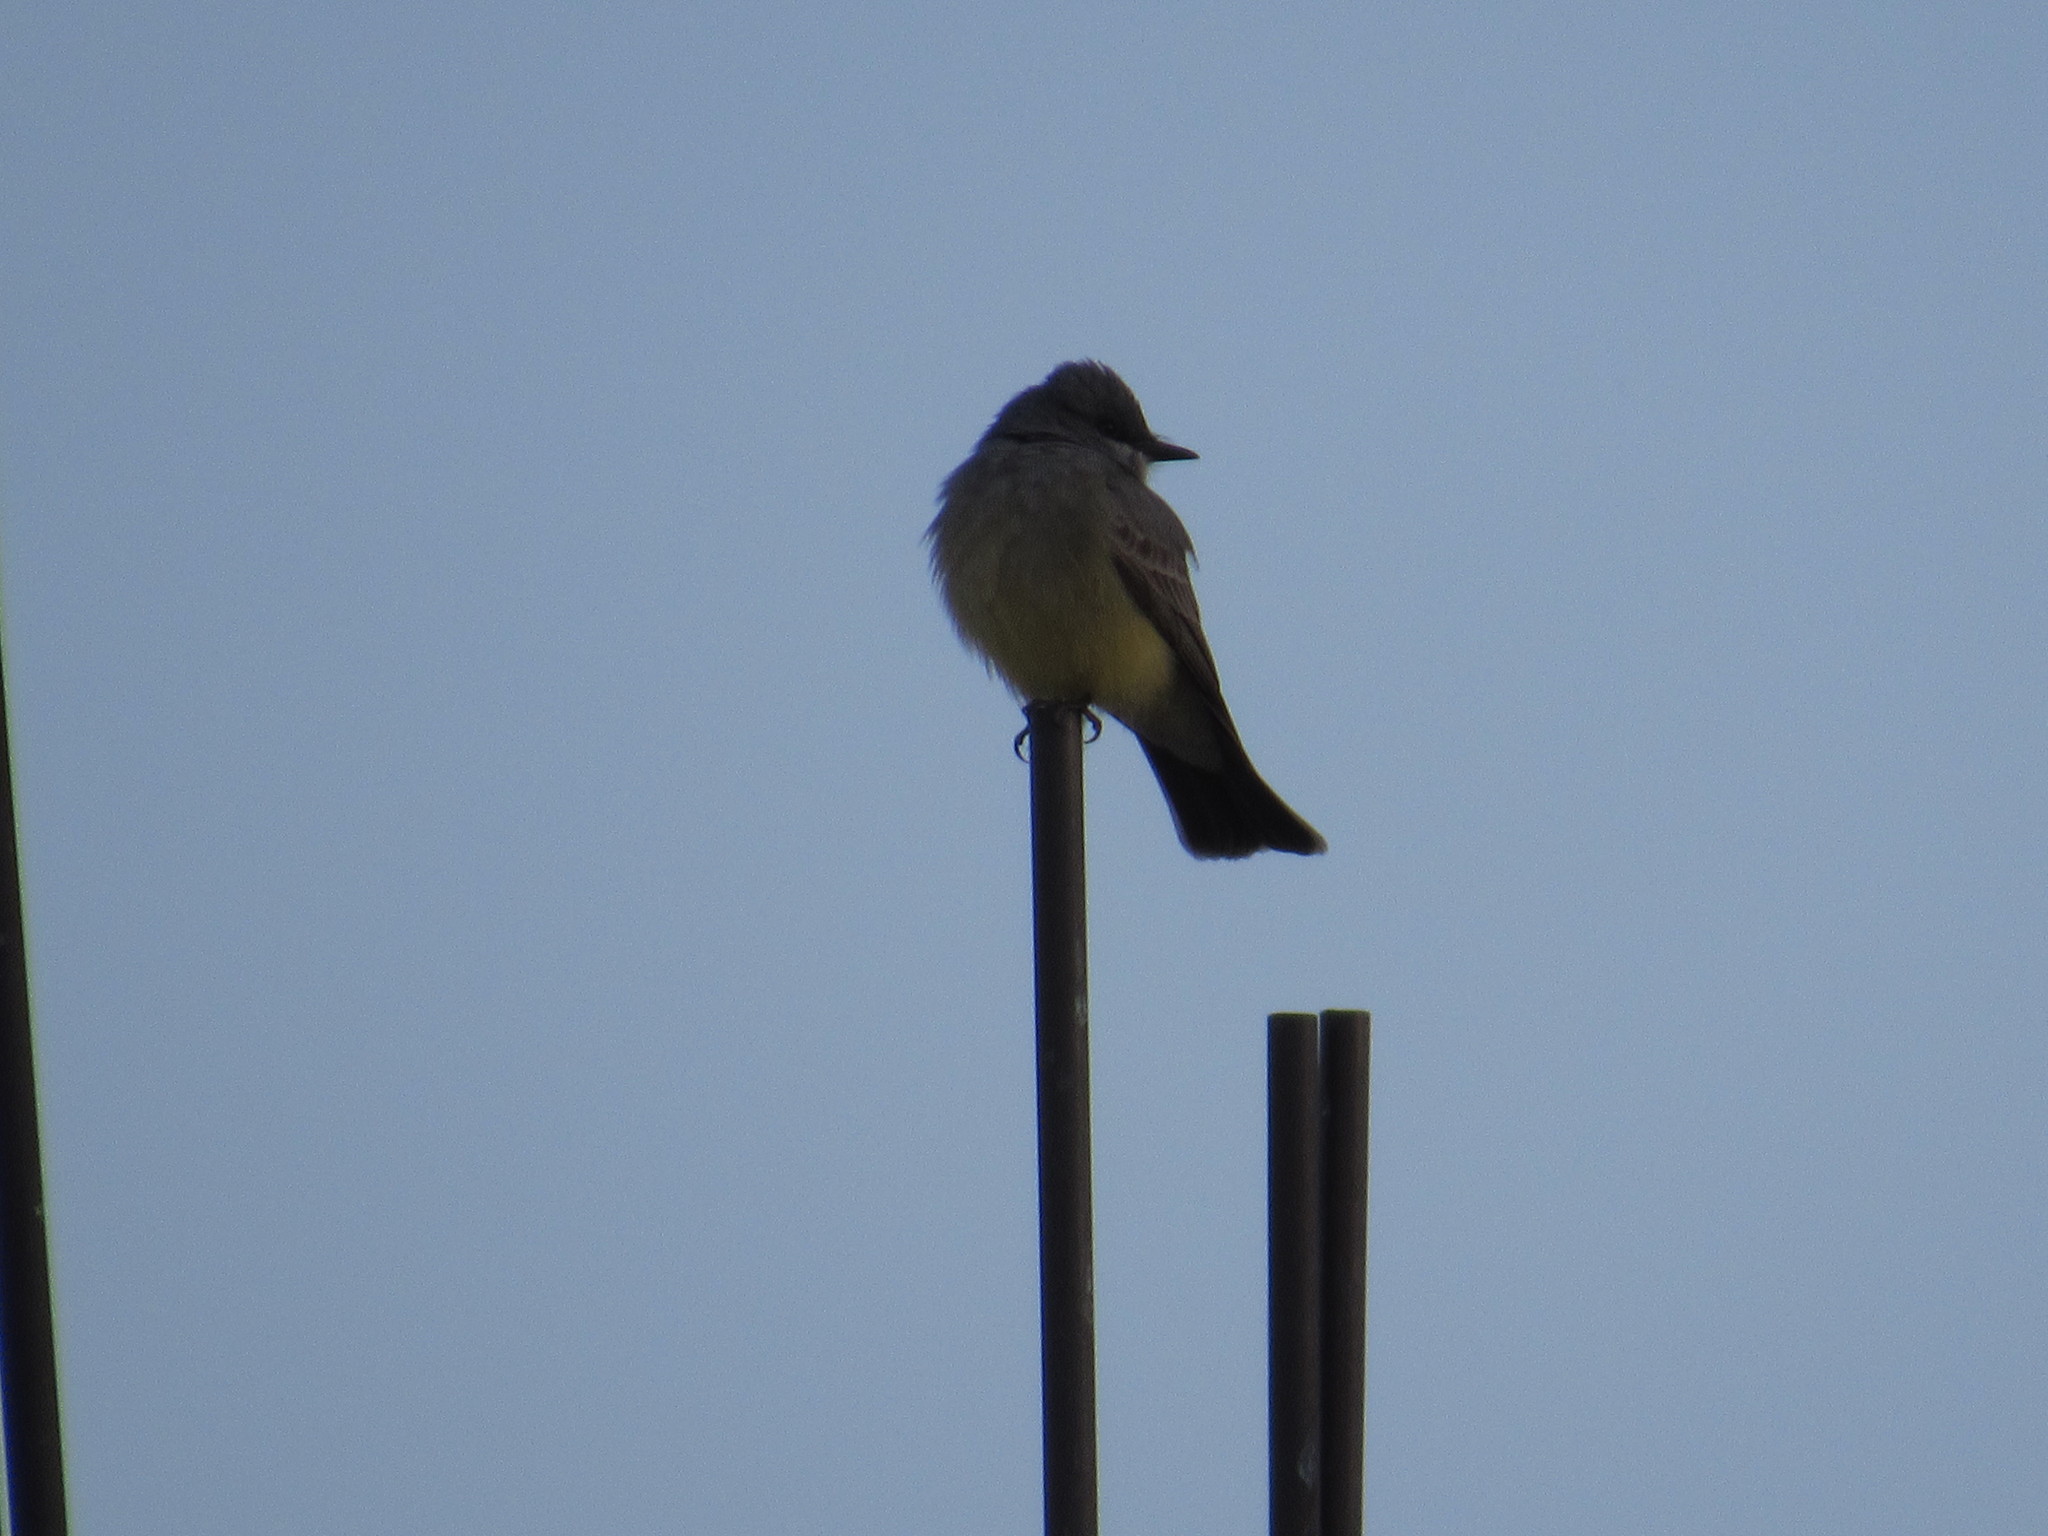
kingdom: Animalia
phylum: Chordata
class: Aves
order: Passeriformes
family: Tyrannidae
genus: Tyrannus
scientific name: Tyrannus vociferans
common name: Cassin's kingbird
